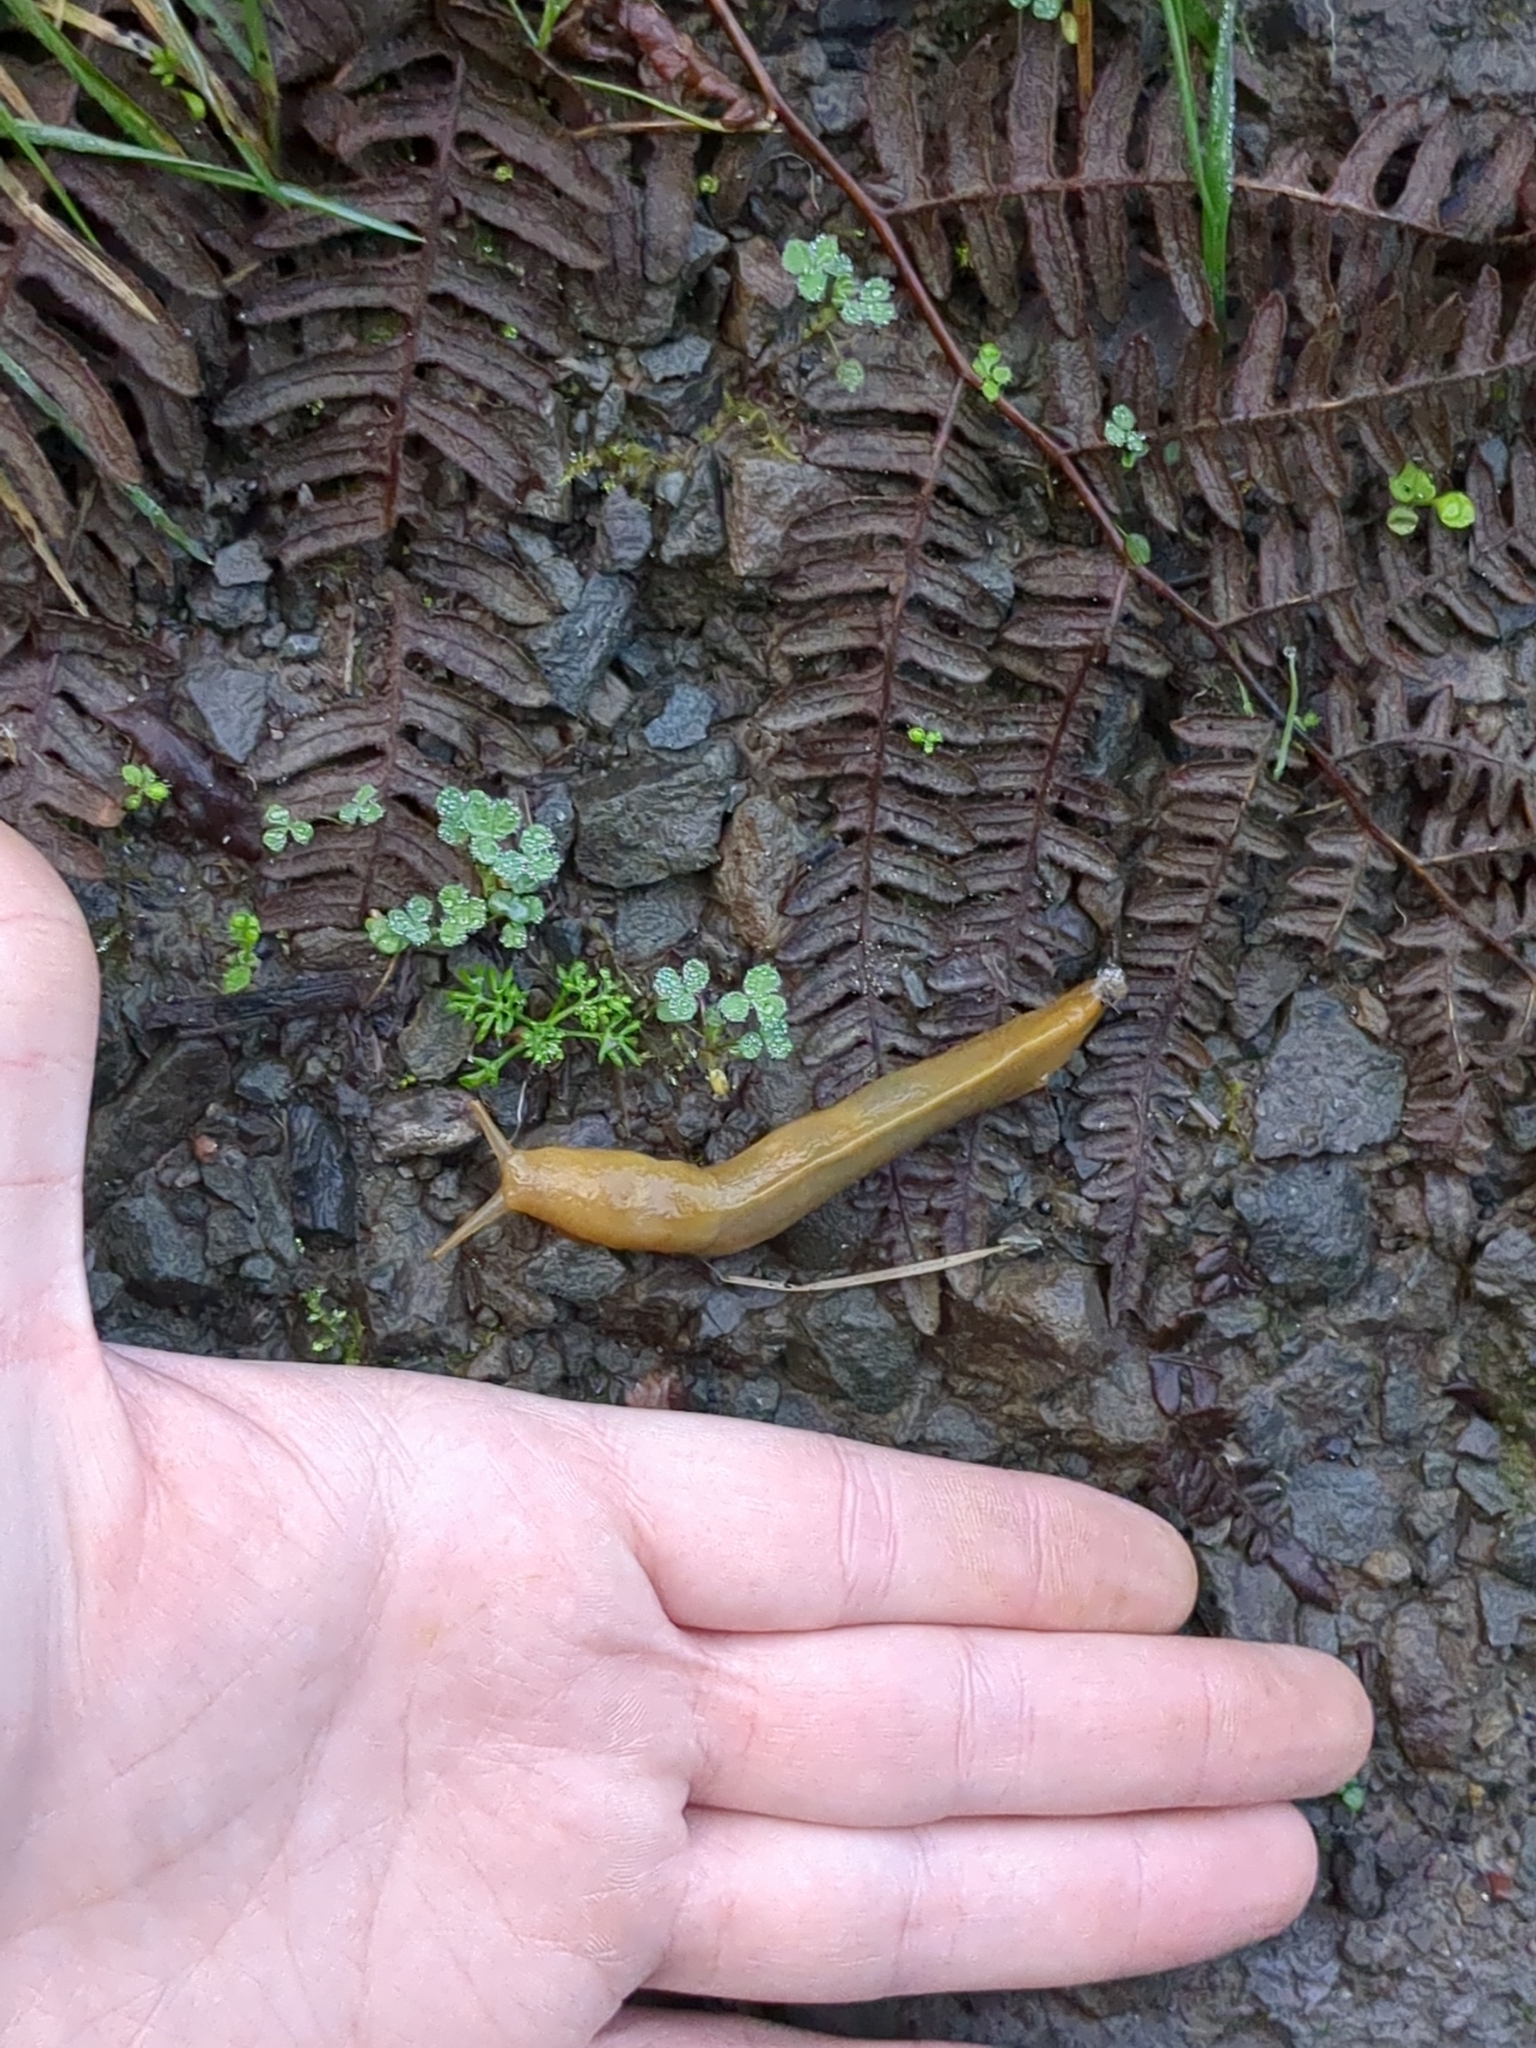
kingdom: Animalia
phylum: Mollusca
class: Gastropoda
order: Stylommatophora
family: Ariolimacidae
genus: Ariolimax
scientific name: Ariolimax columbianus
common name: Pacific banana slug
